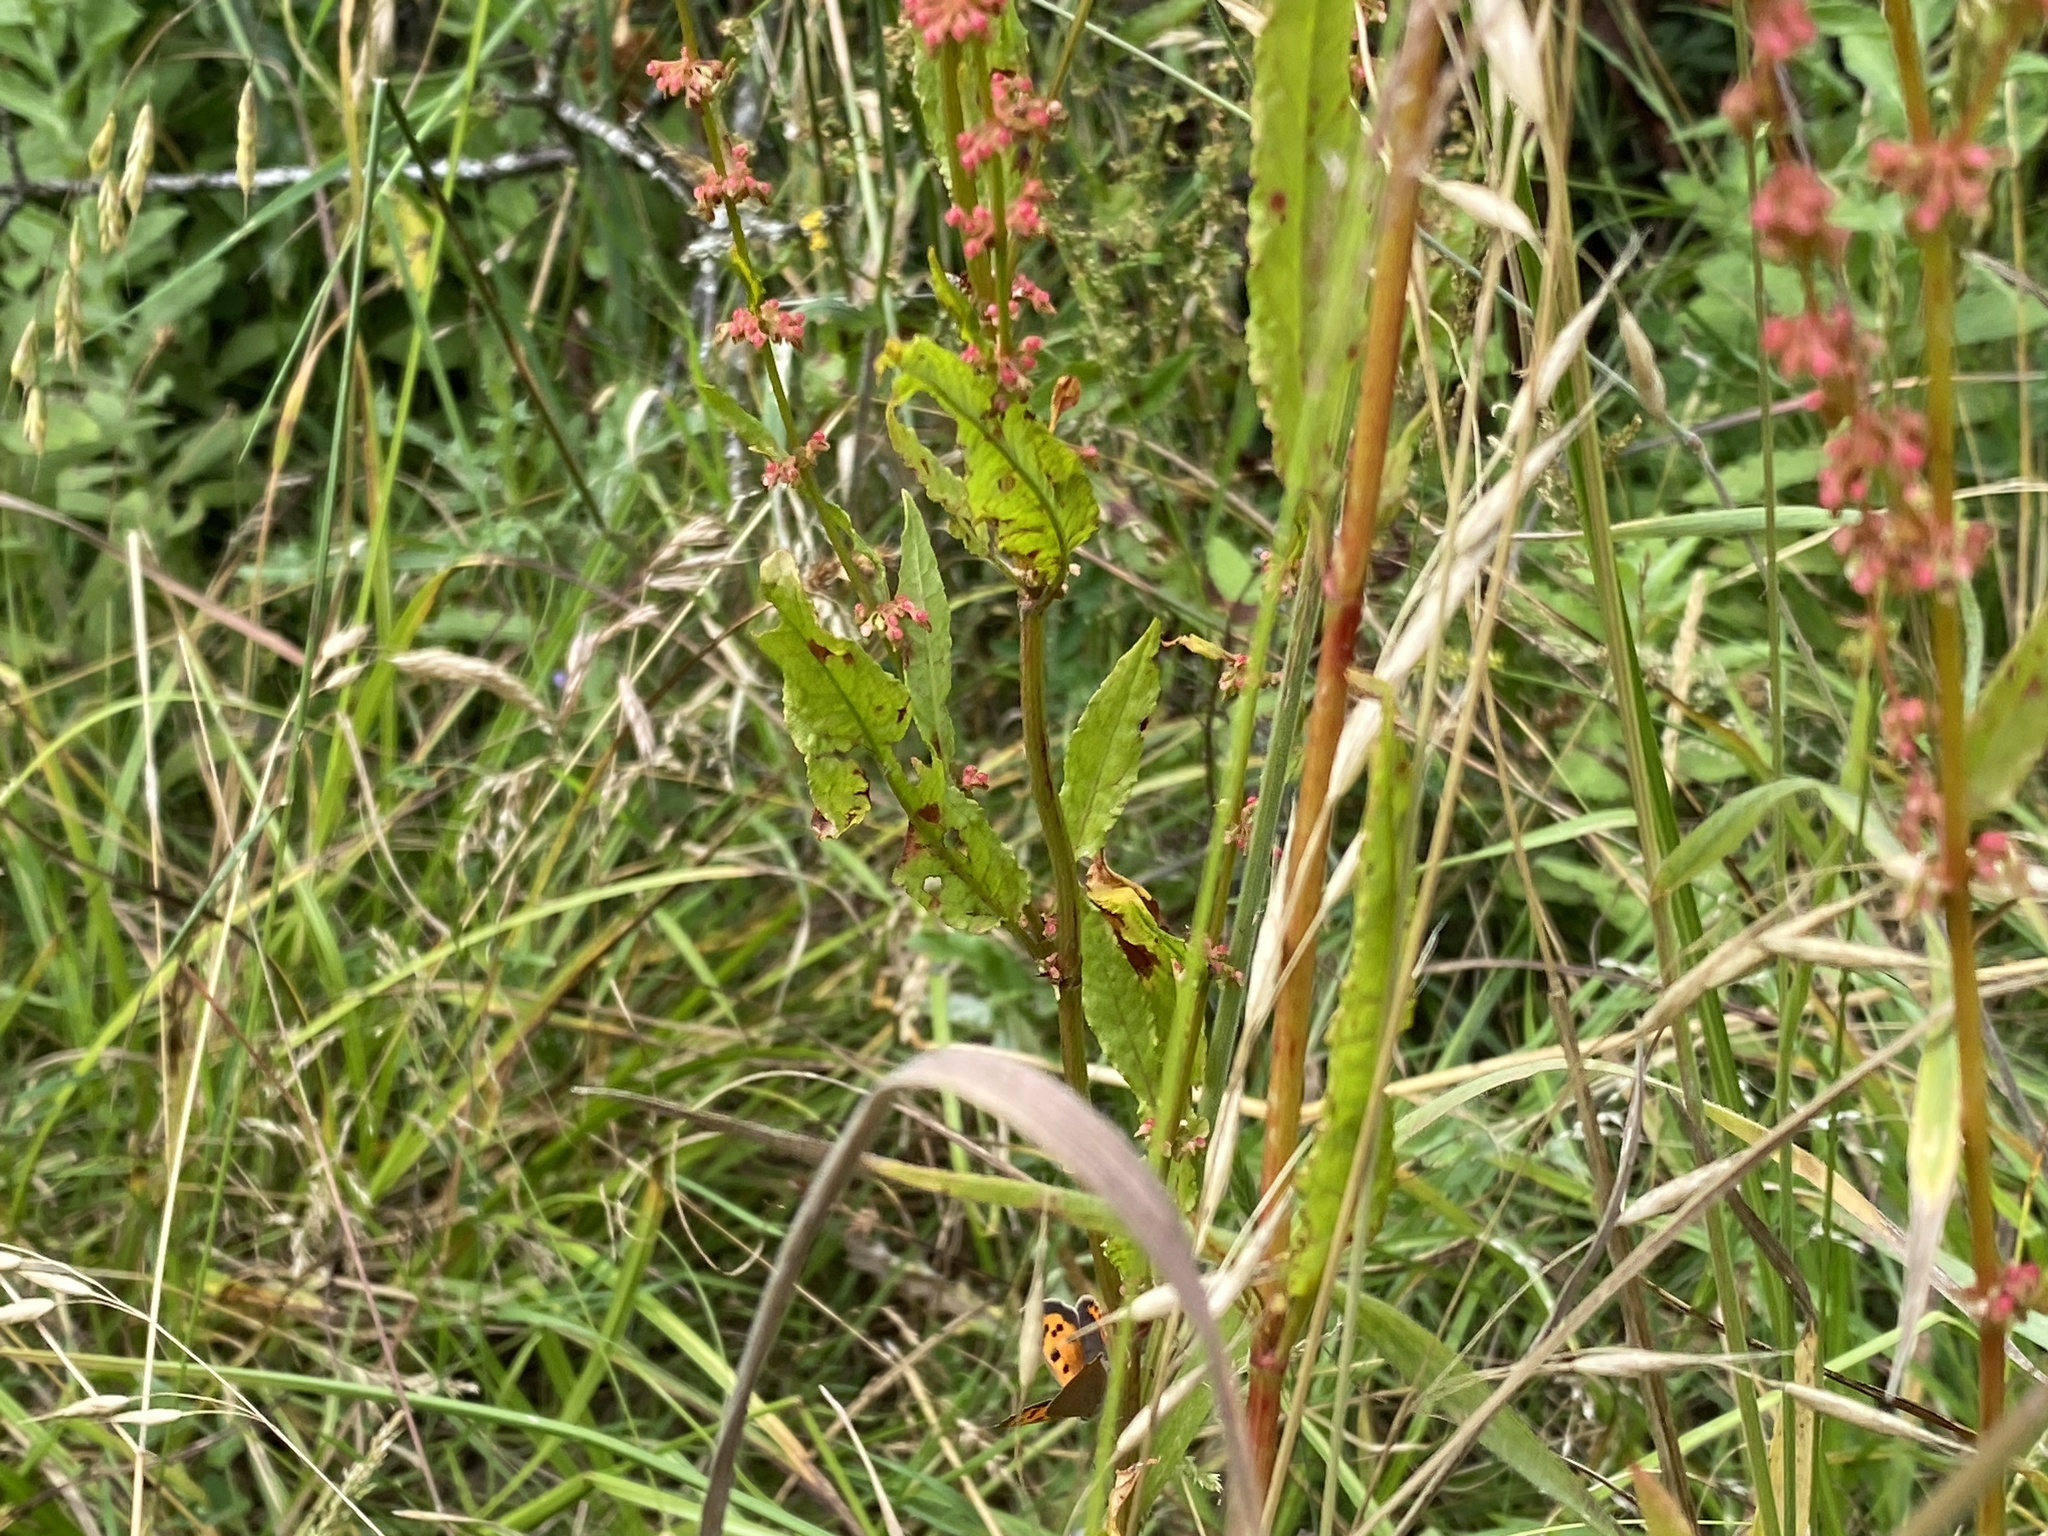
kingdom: Animalia
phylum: Arthropoda
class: Insecta
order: Lepidoptera
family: Lycaenidae
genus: Lycaena
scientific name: Lycaena phlaeas
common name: Small copper
